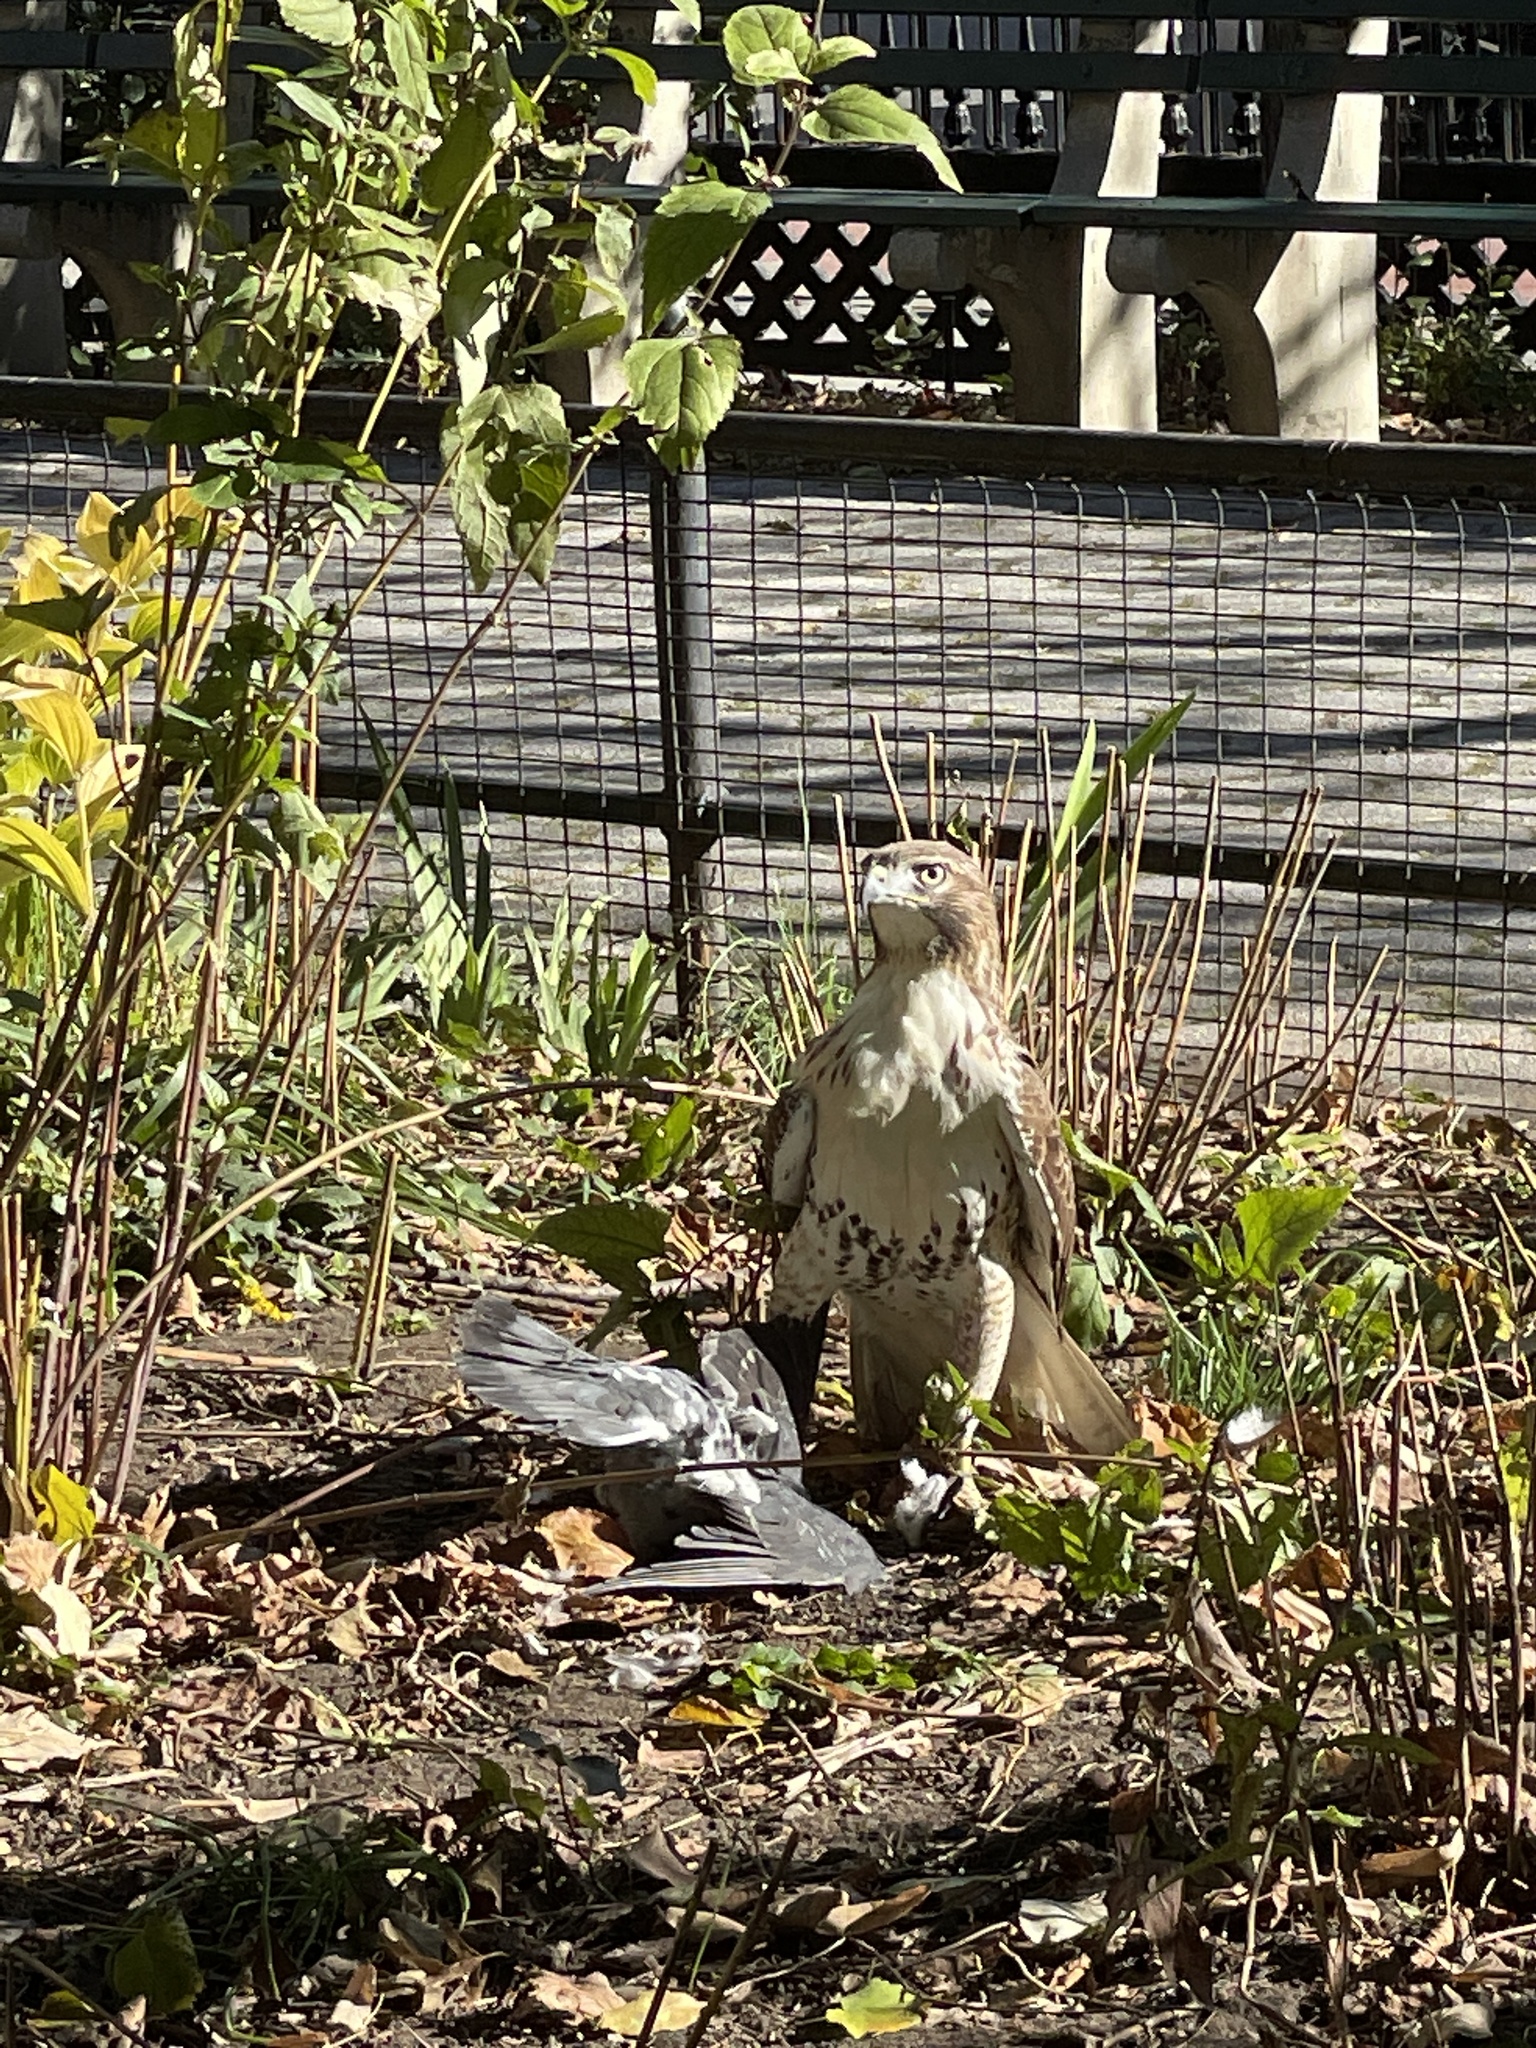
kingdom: Animalia
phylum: Chordata
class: Aves
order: Accipitriformes
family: Accipitridae
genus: Buteo
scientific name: Buteo jamaicensis
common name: Red-tailed hawk
